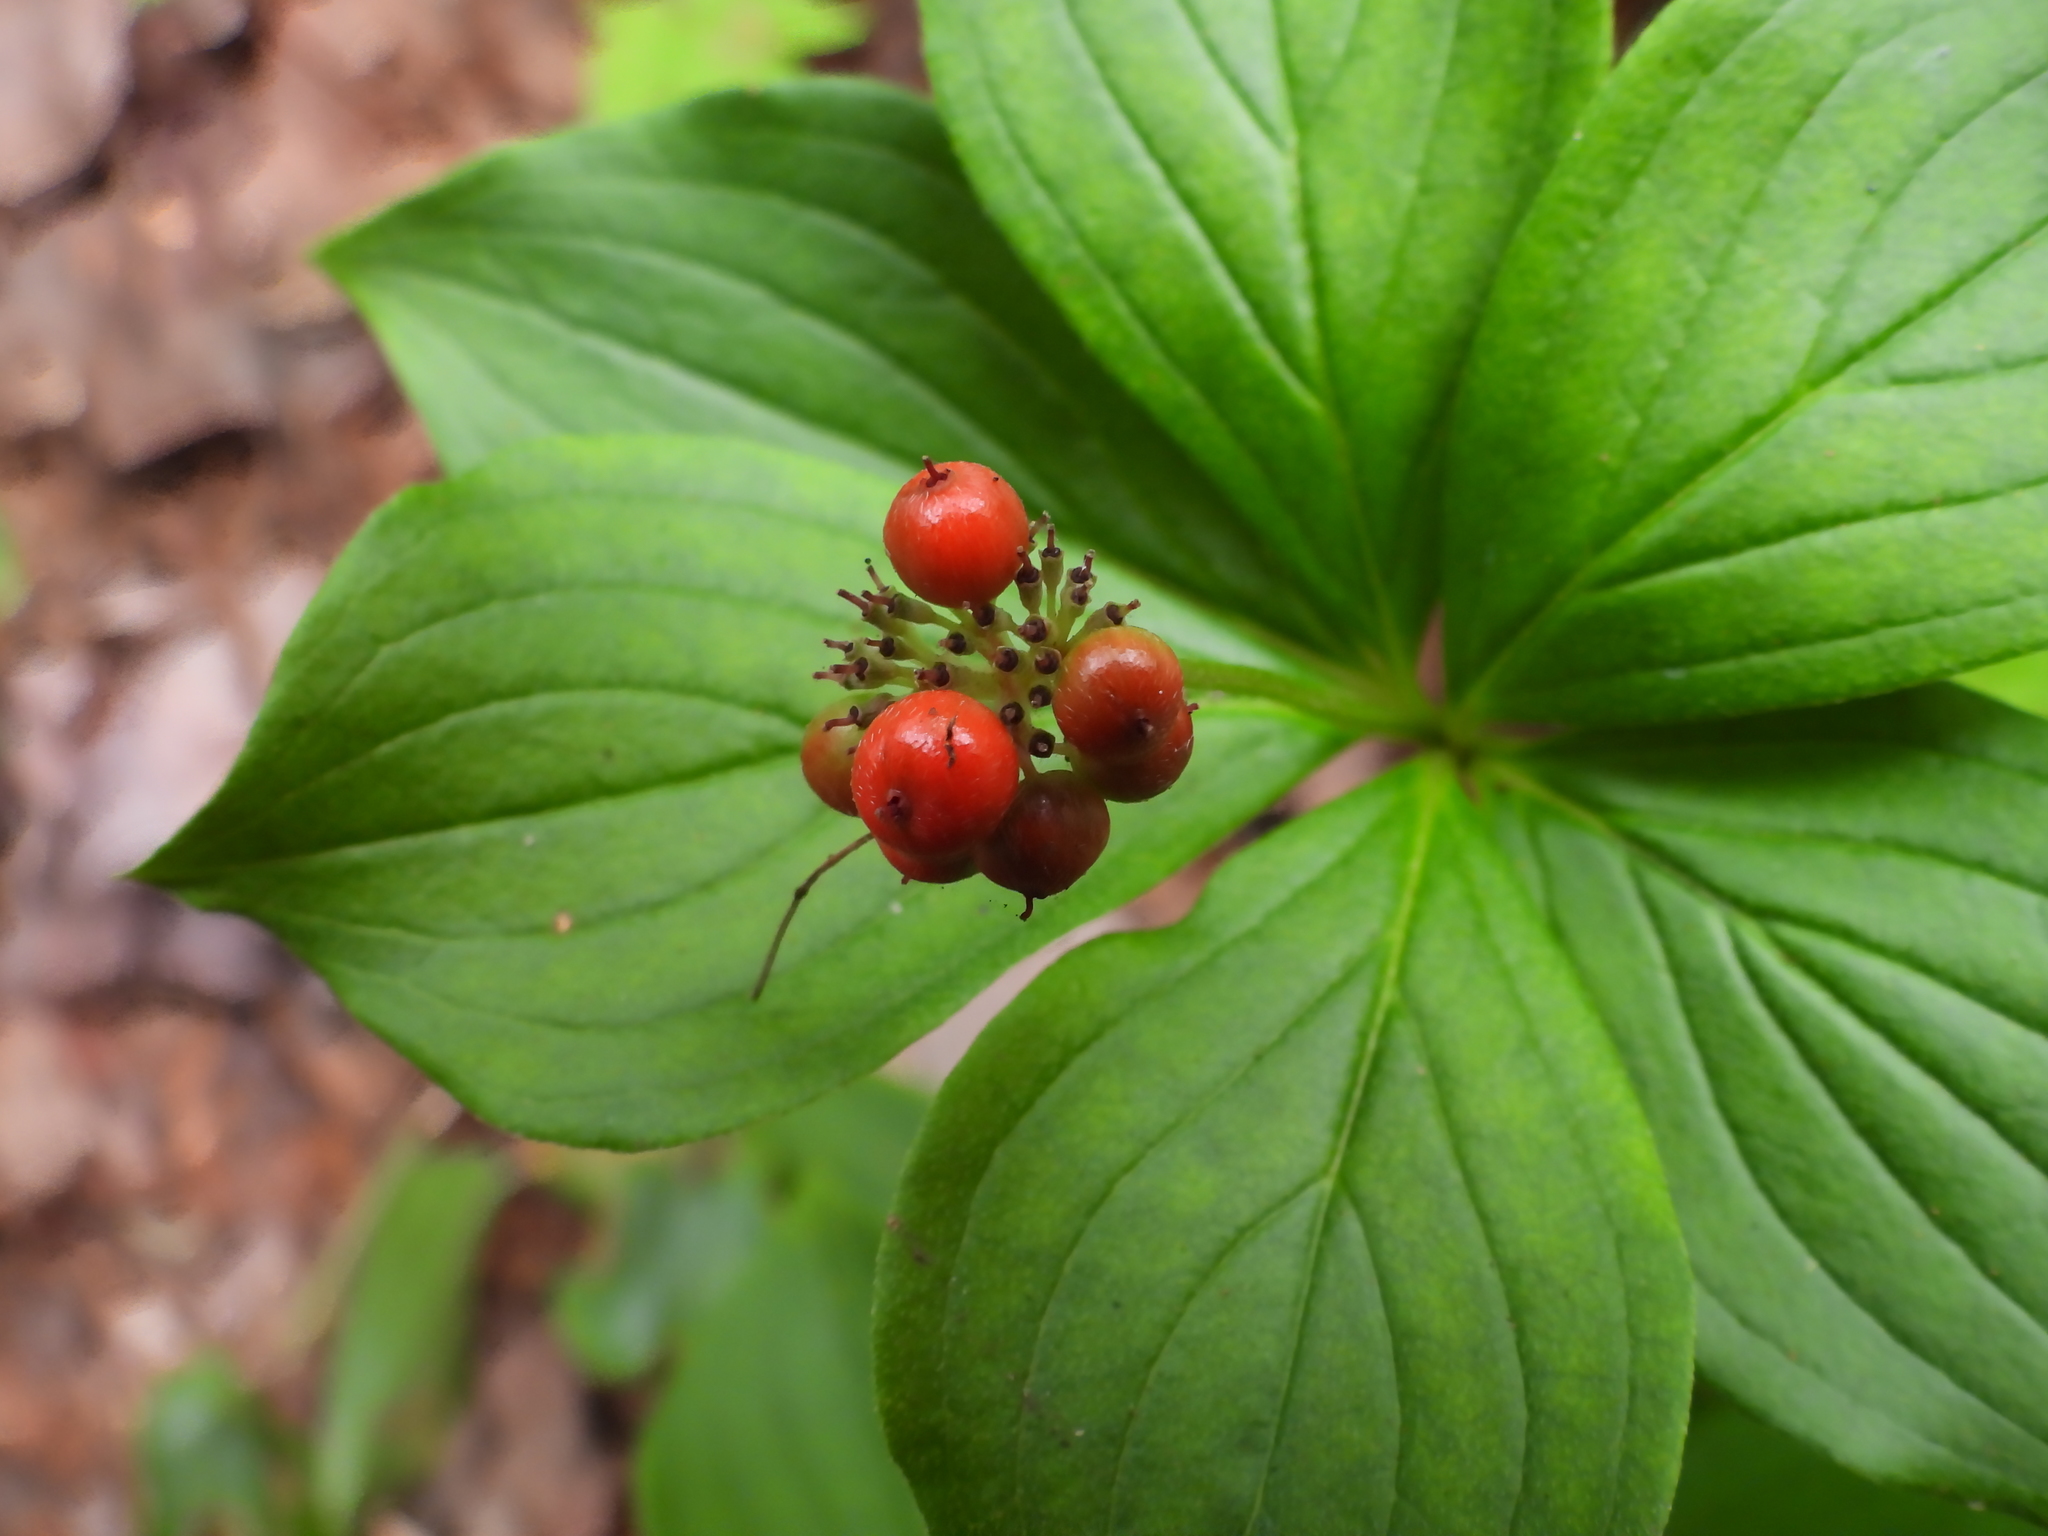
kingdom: Plantae
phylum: Tracheophyta
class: Magnoliopsida
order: Cornales
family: Cornaceae
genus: Cornus
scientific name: Cornus canadensis
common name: Creeping dogwood
